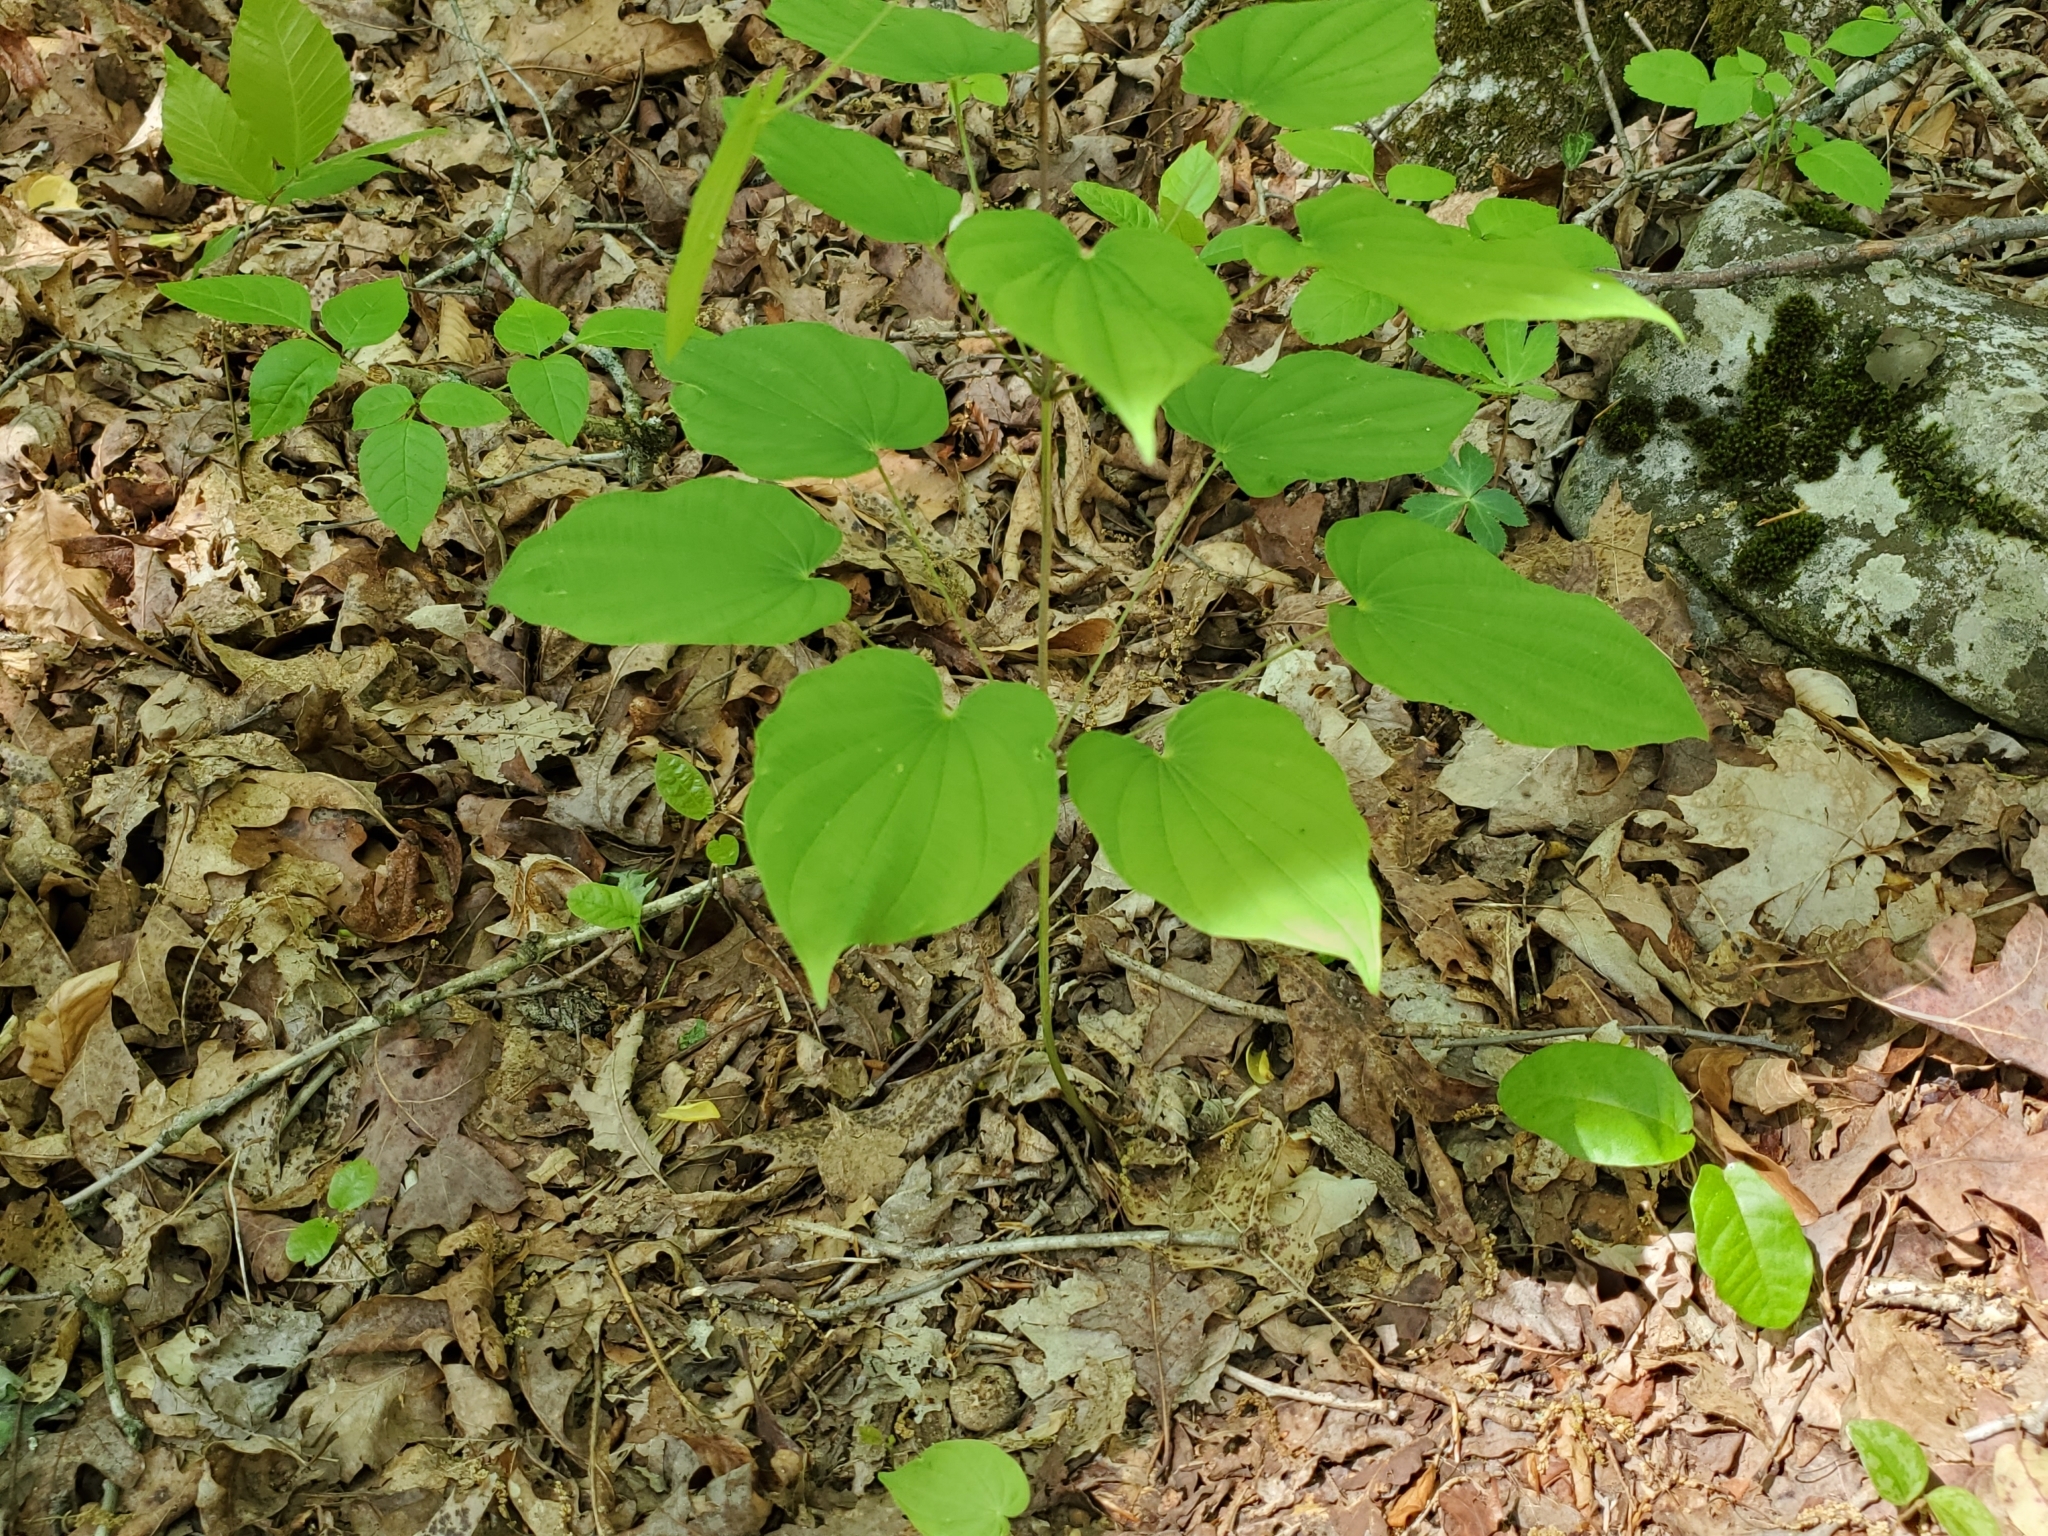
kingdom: Plantae
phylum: Tracheophyta
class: Liliopsida
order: Dioscoreales
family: Dioscoreaceae
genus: Dioscorea
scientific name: Dioscorea villosa
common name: Wild yam
